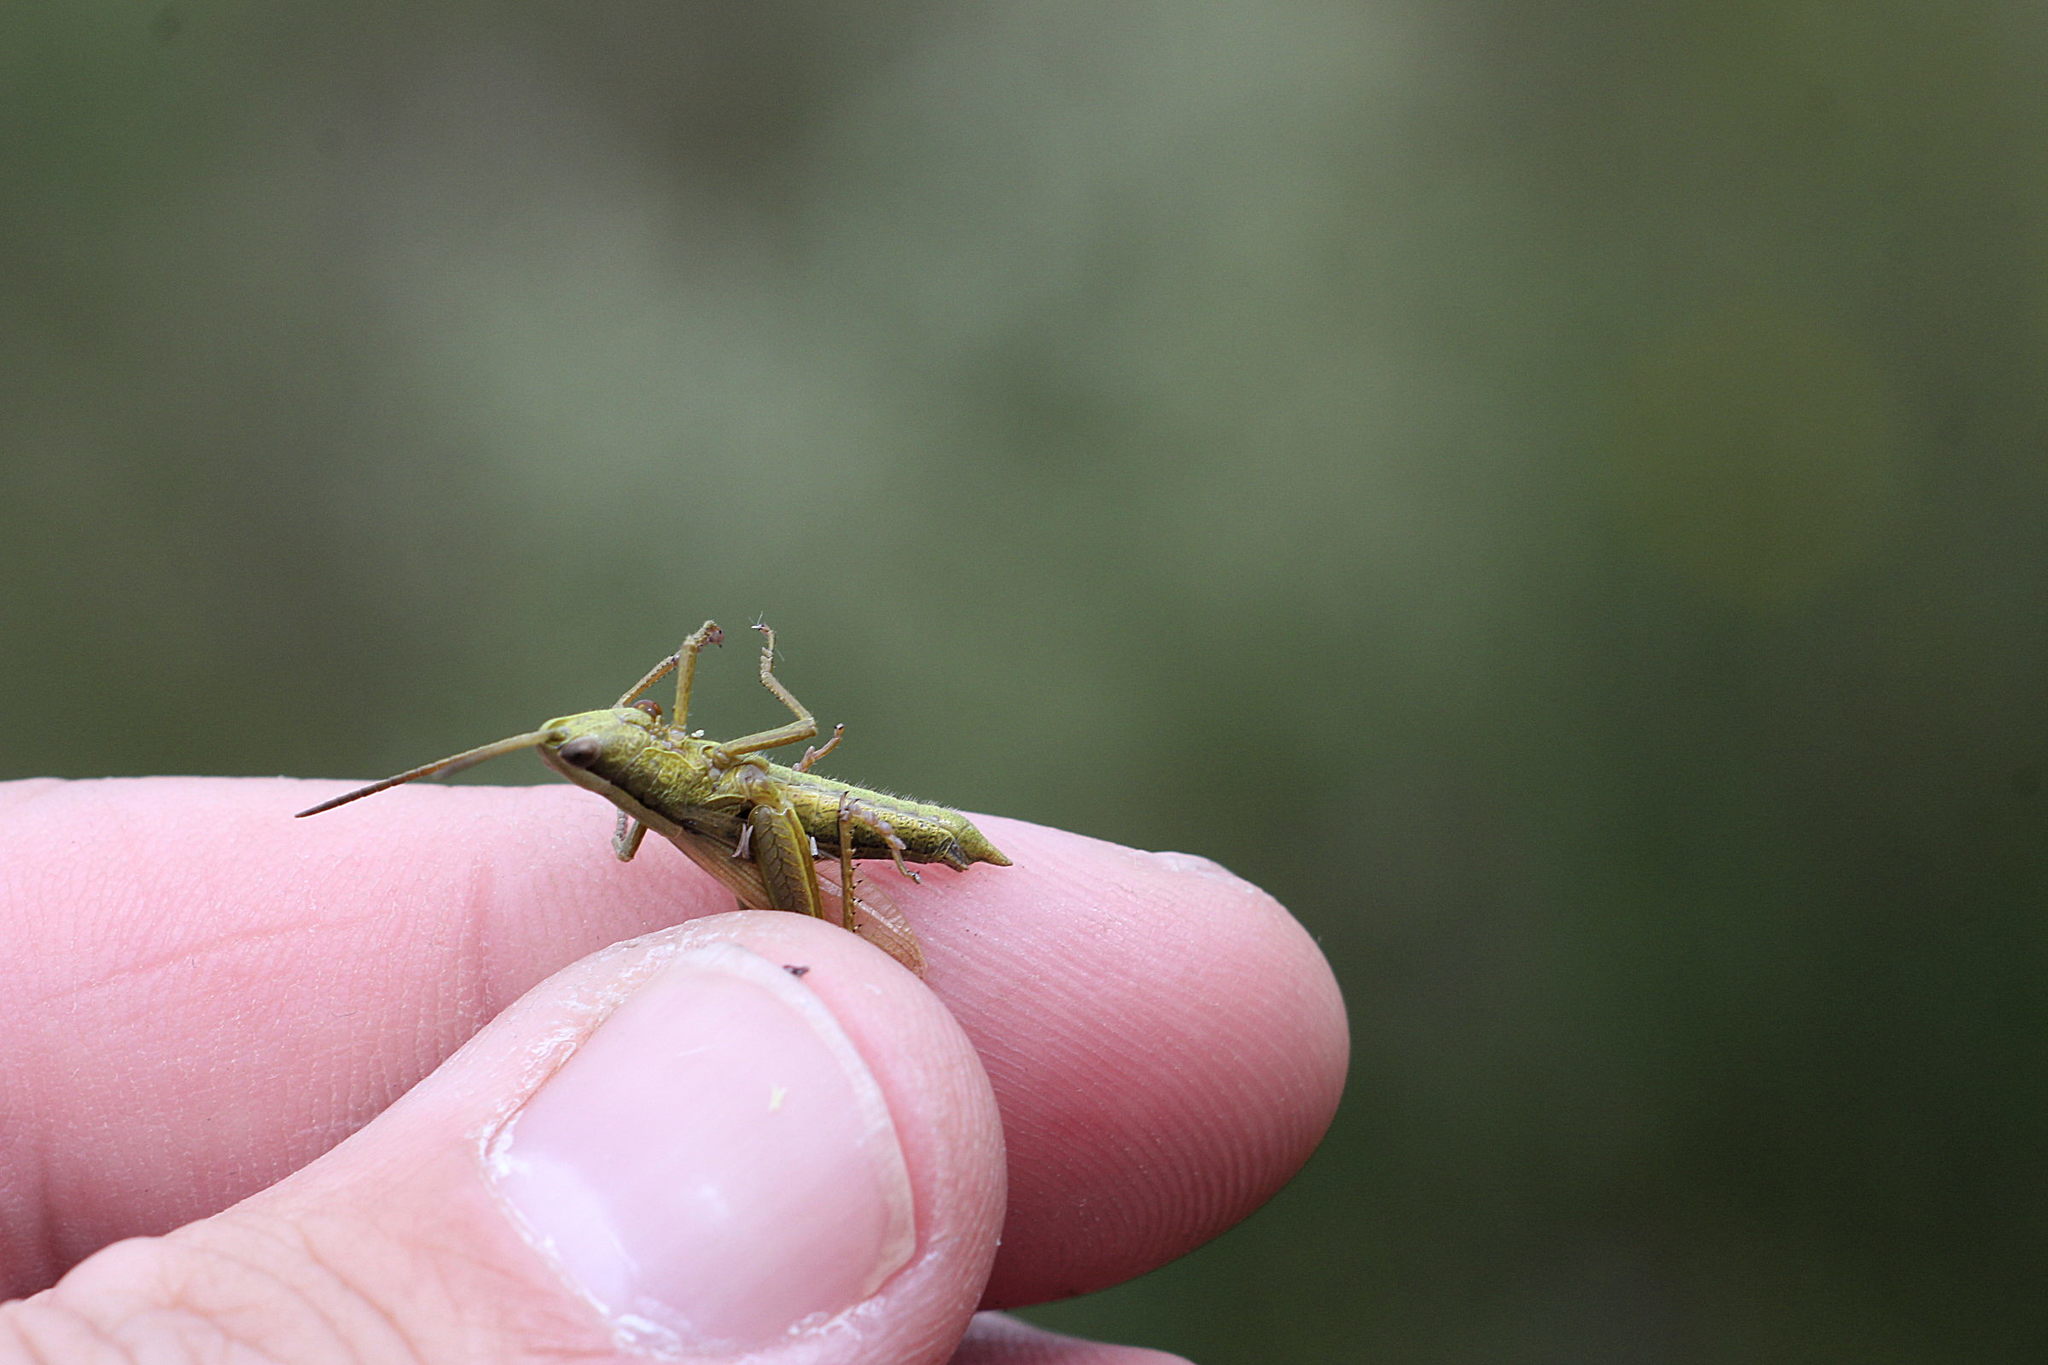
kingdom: Animalia
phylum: Arthropoda
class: Insecta
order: Orthoptera
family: Acrididae
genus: Chrysochraon
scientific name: Chrysochraon dispar
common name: Large gold grasshopper
